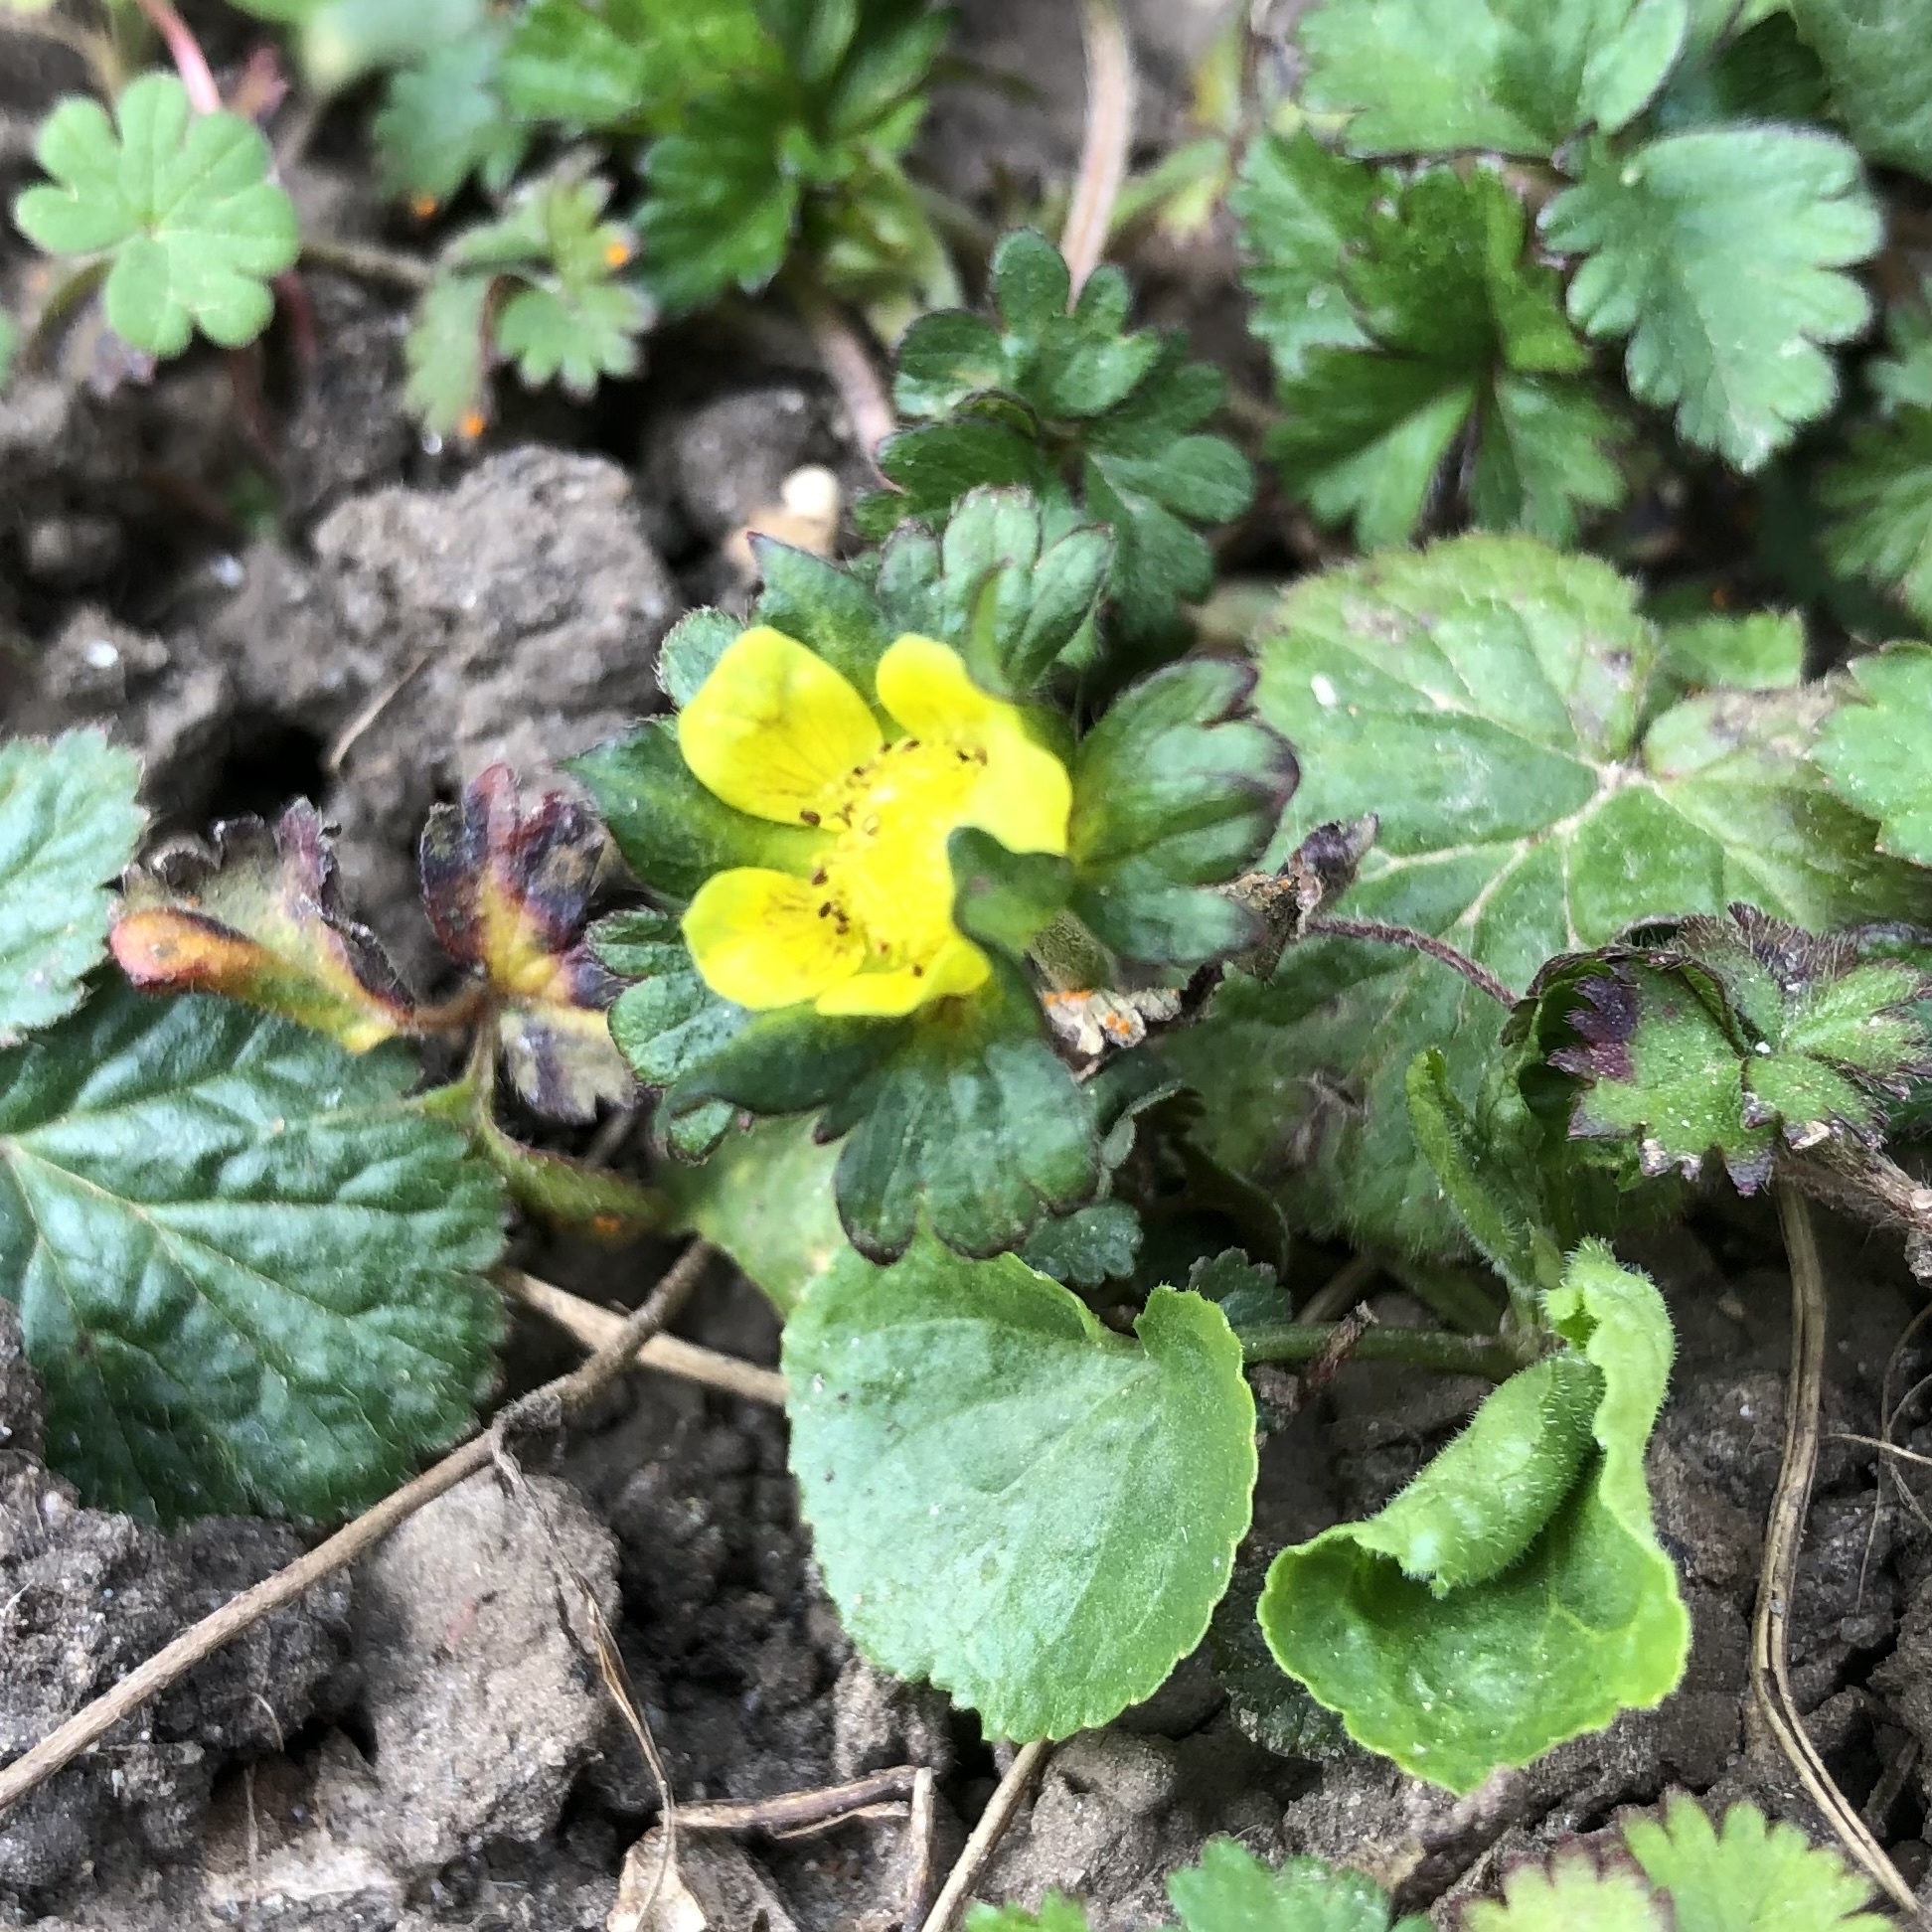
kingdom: Plantae
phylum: Tracheophyta
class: Magnoliopsida
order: Rosales
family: Rosaceae
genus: Potentilla
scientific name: Potentilla indica
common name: Yellow-flowered strawberry
